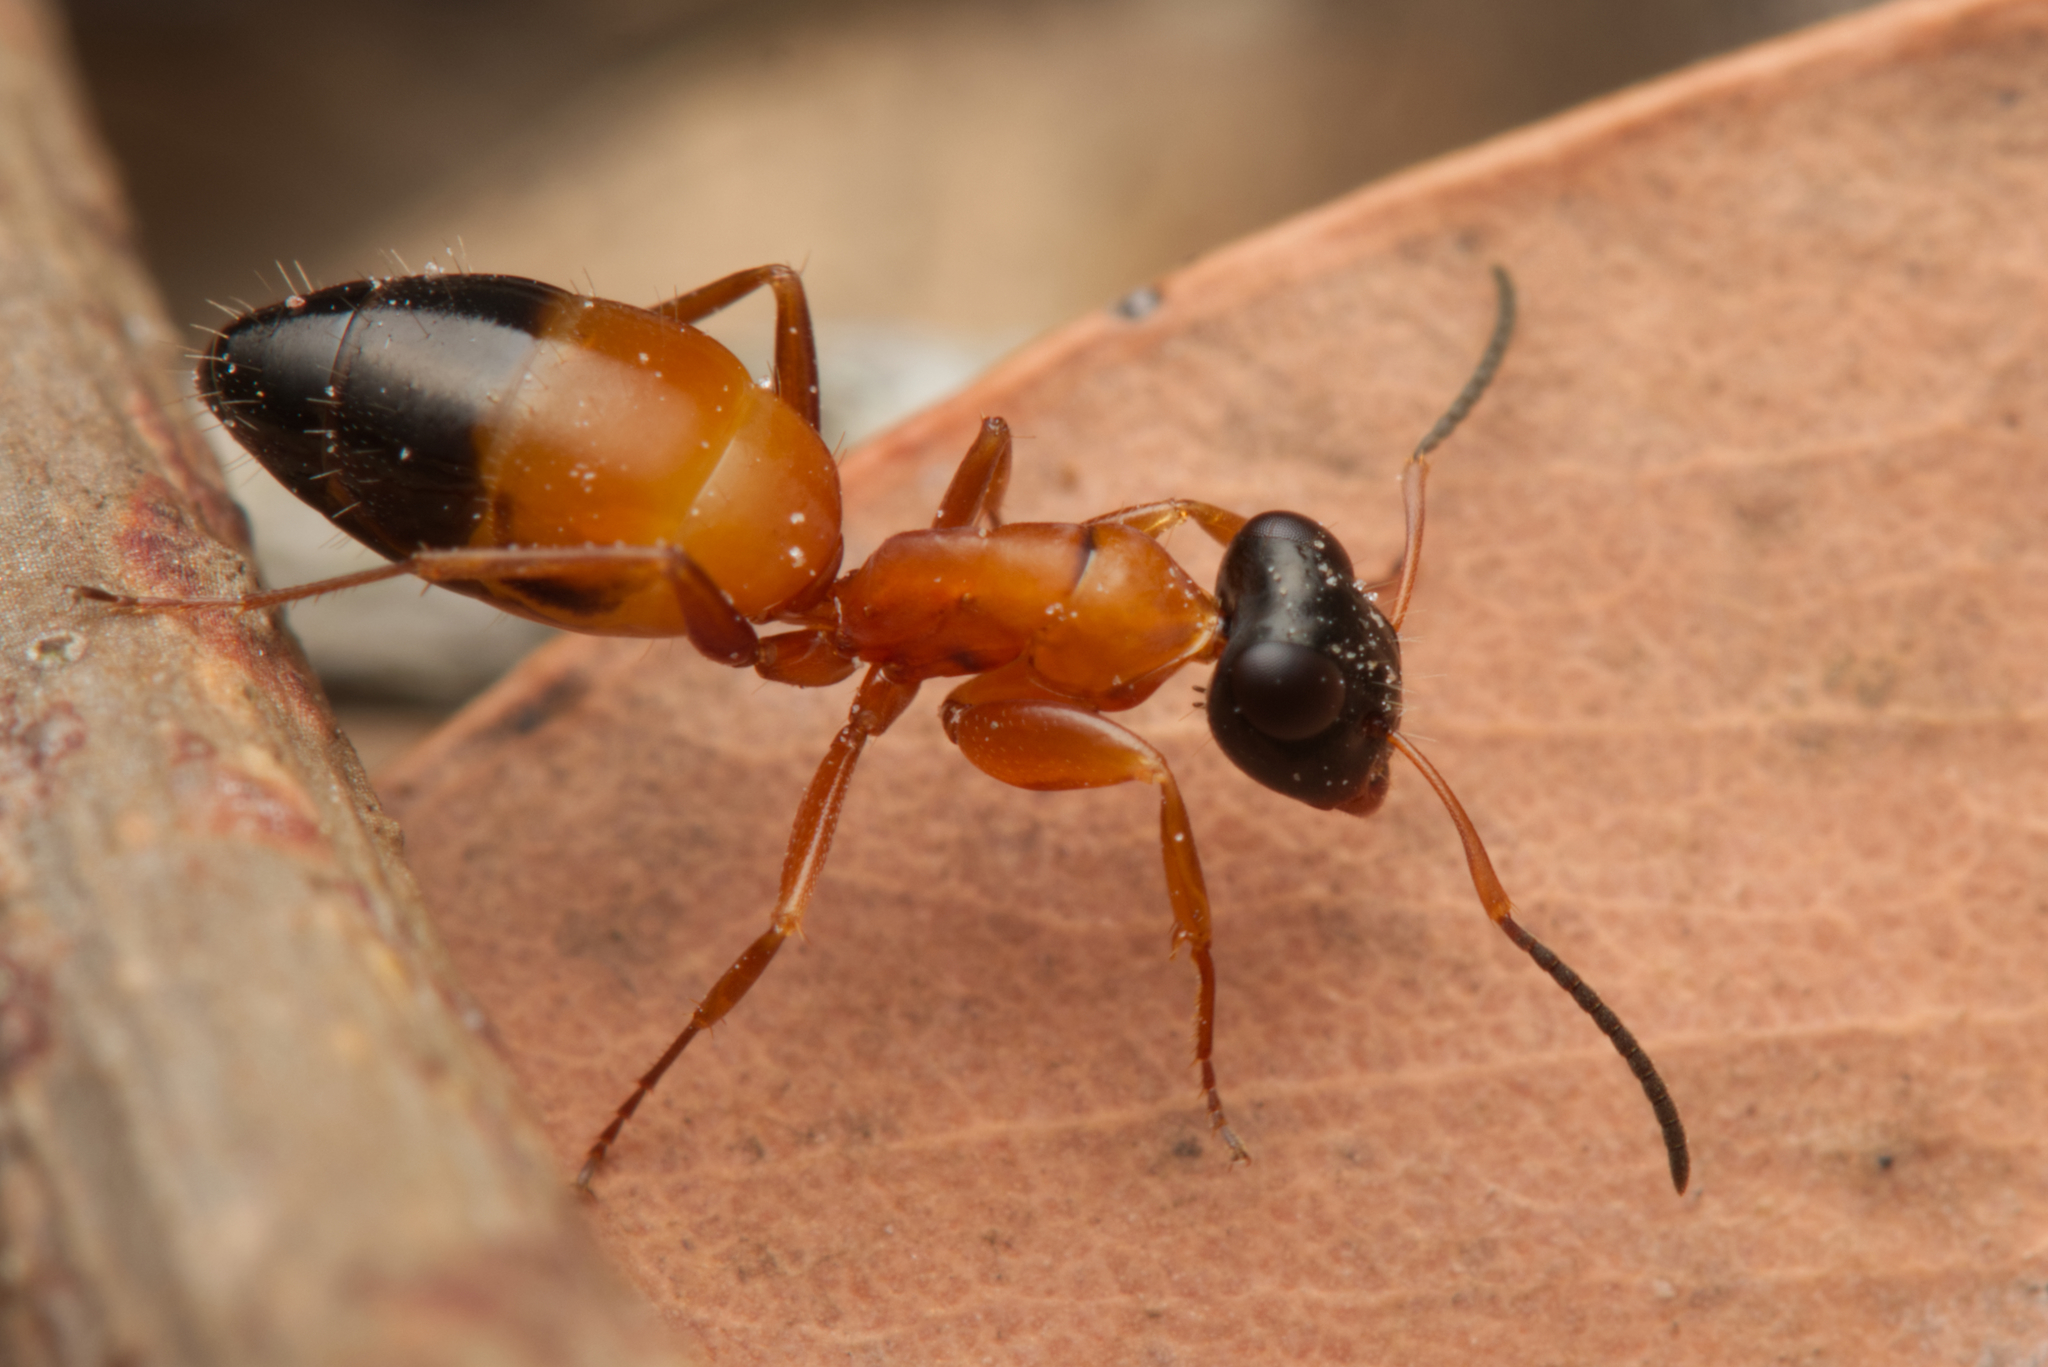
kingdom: Animalia
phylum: Arthropoda
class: Insecta
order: Hymenoptera
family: Formicidae
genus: Opisthopsis
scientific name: Opisthopsis rufithorax
